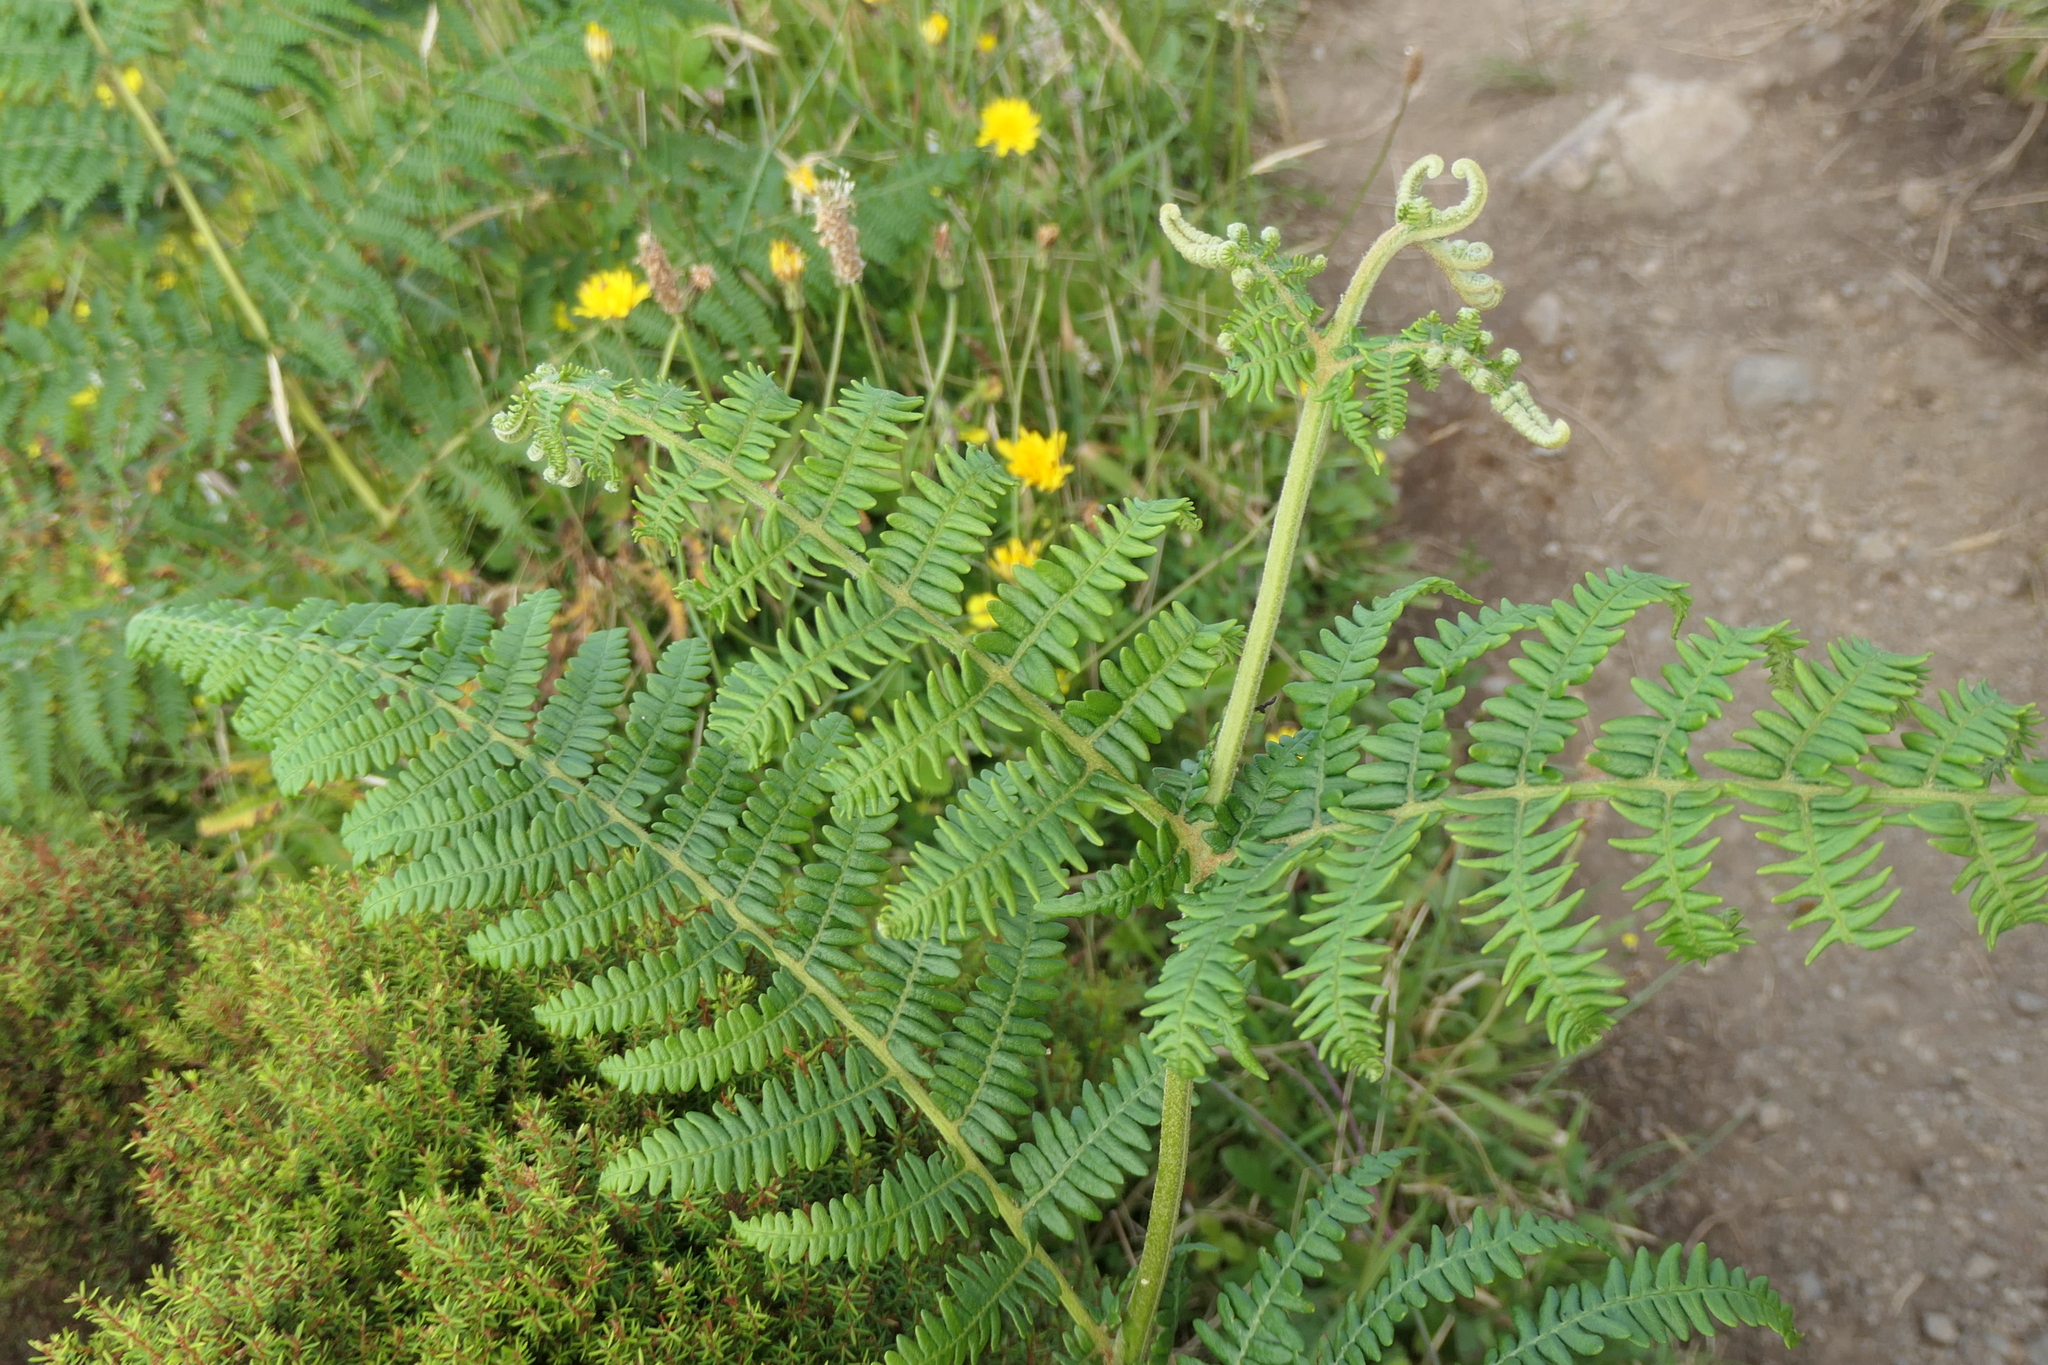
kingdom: Plantae
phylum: Tracheophyta
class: Polypodiopsida
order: Polypodiales
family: Dennstaedtiaceae
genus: Pteridium
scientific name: Pteridium aquilinum
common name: Bracken
